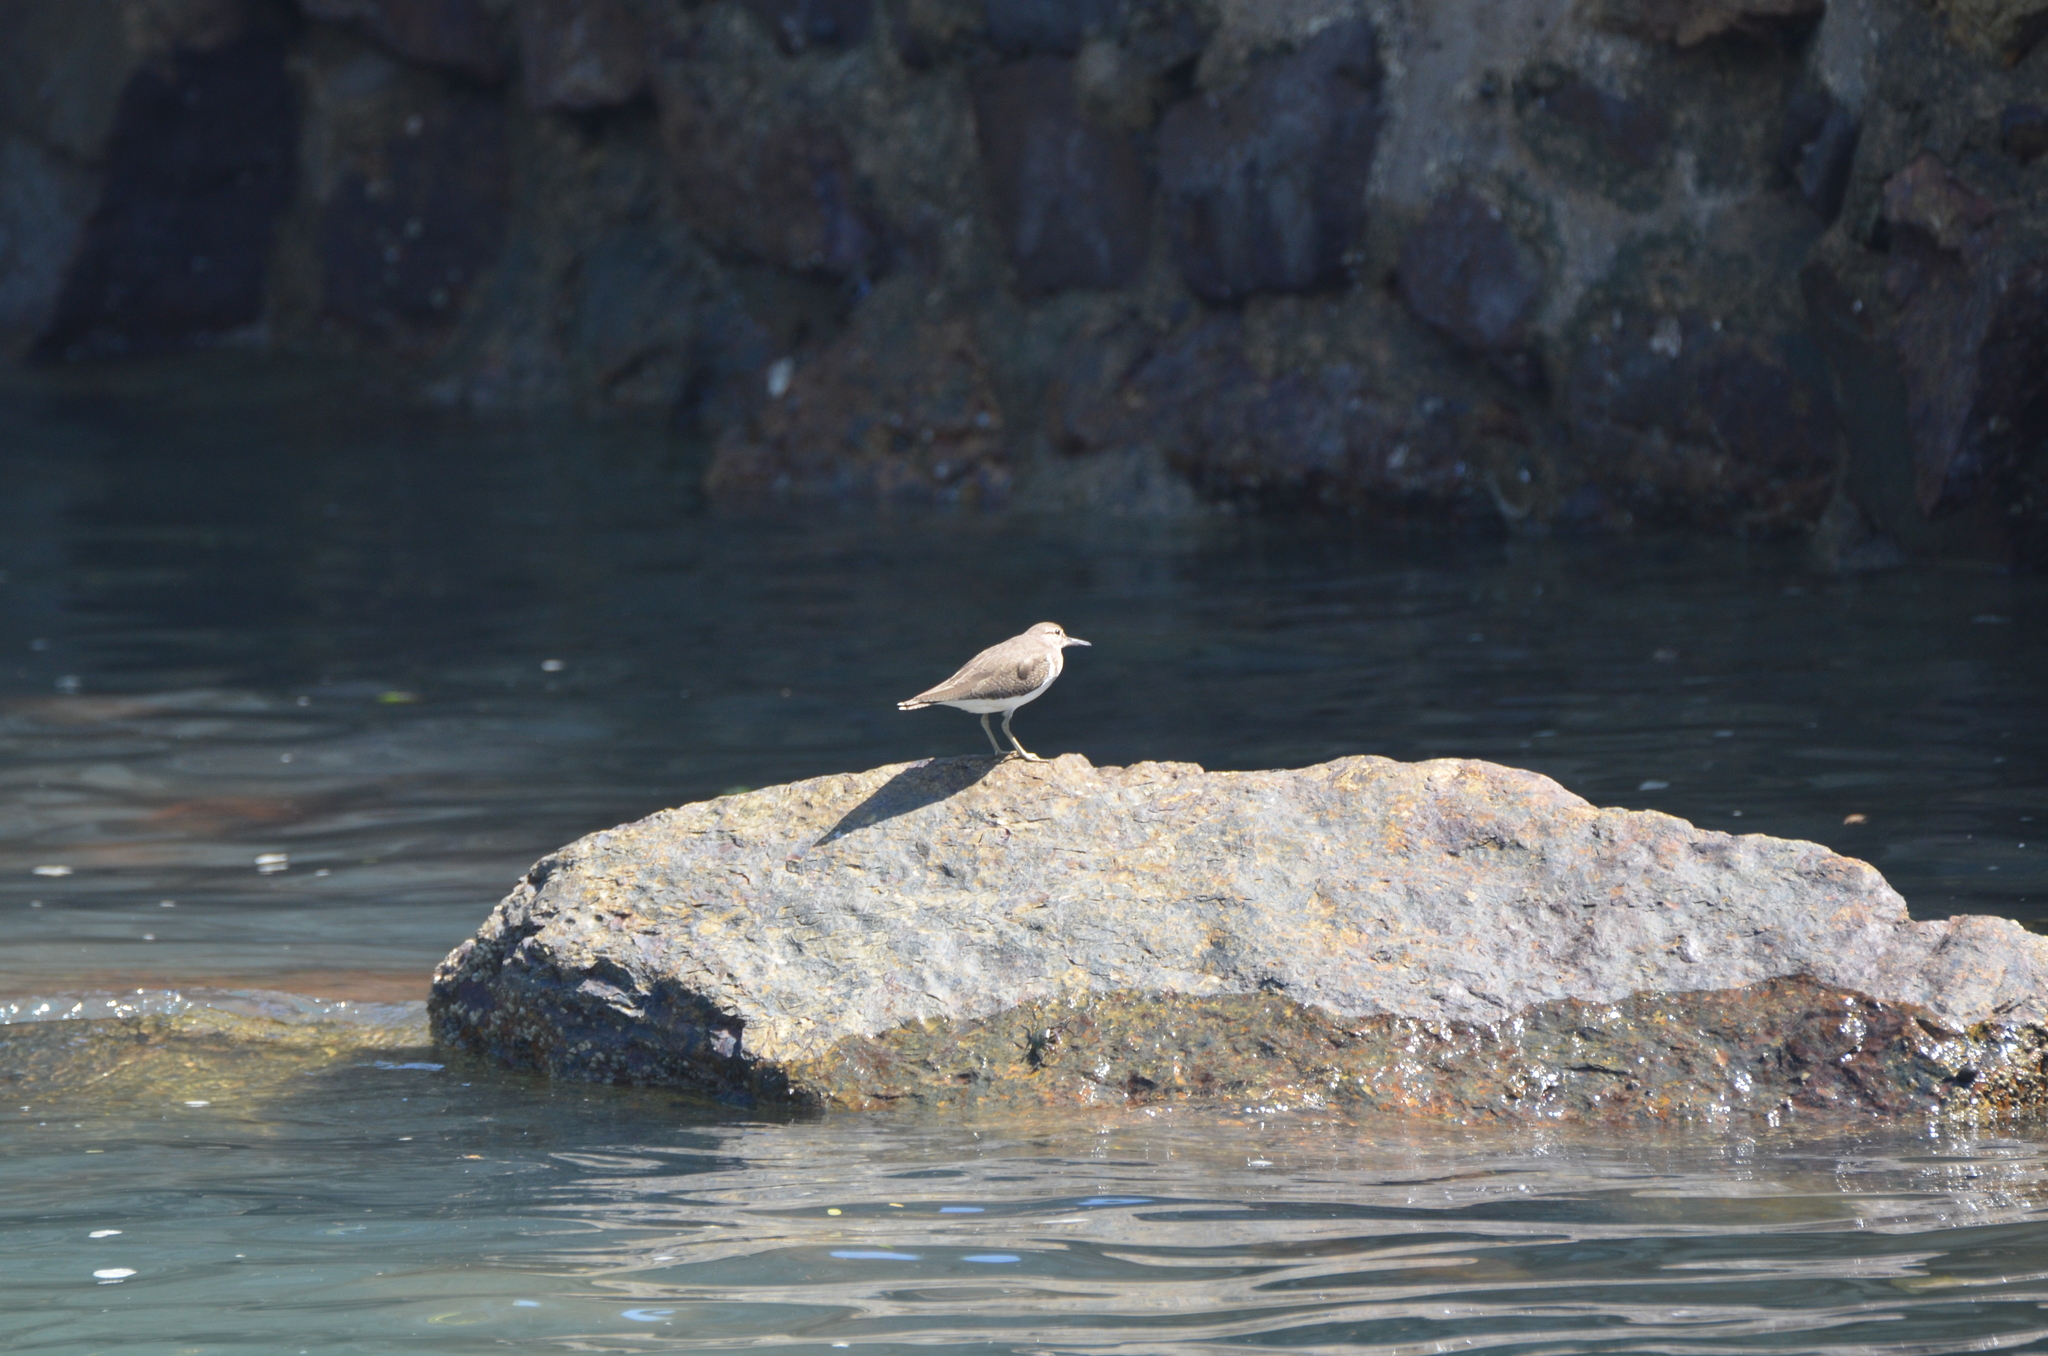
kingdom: Animalia
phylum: Chordata
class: Aves
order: Charadriiformes
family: Scolopacidae
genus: Actitis
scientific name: Actitis hypoleucos
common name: Common sandpiper
